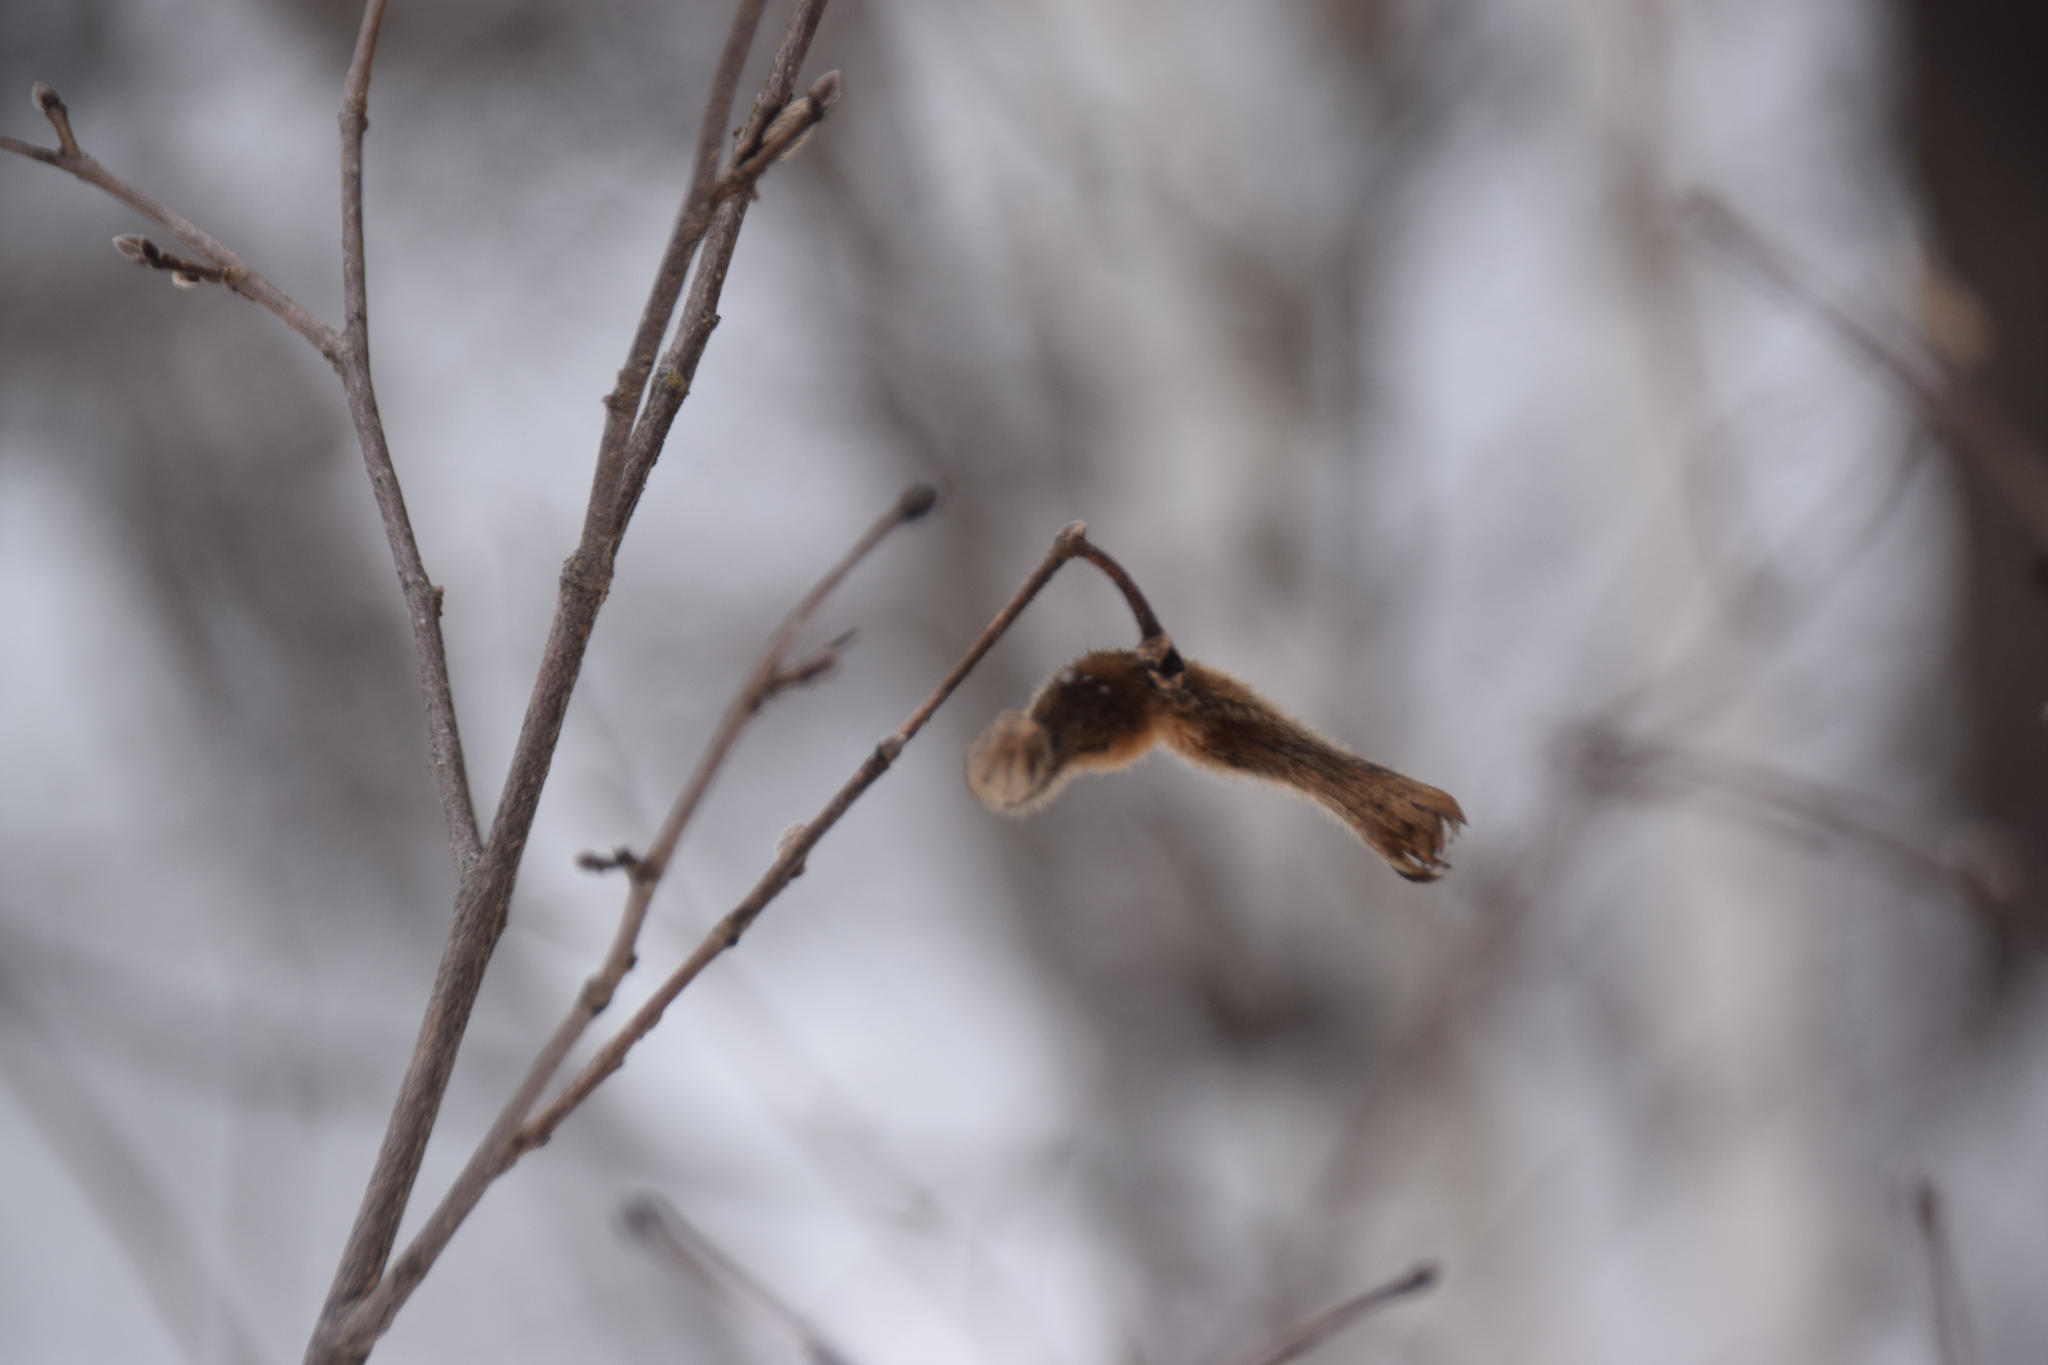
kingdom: Plantae
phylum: Tracheophyta
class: Magnoliopsida
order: Fagales
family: Betulaceae
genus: Corylus
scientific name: Corylus cornuta
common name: Beaked hazel
